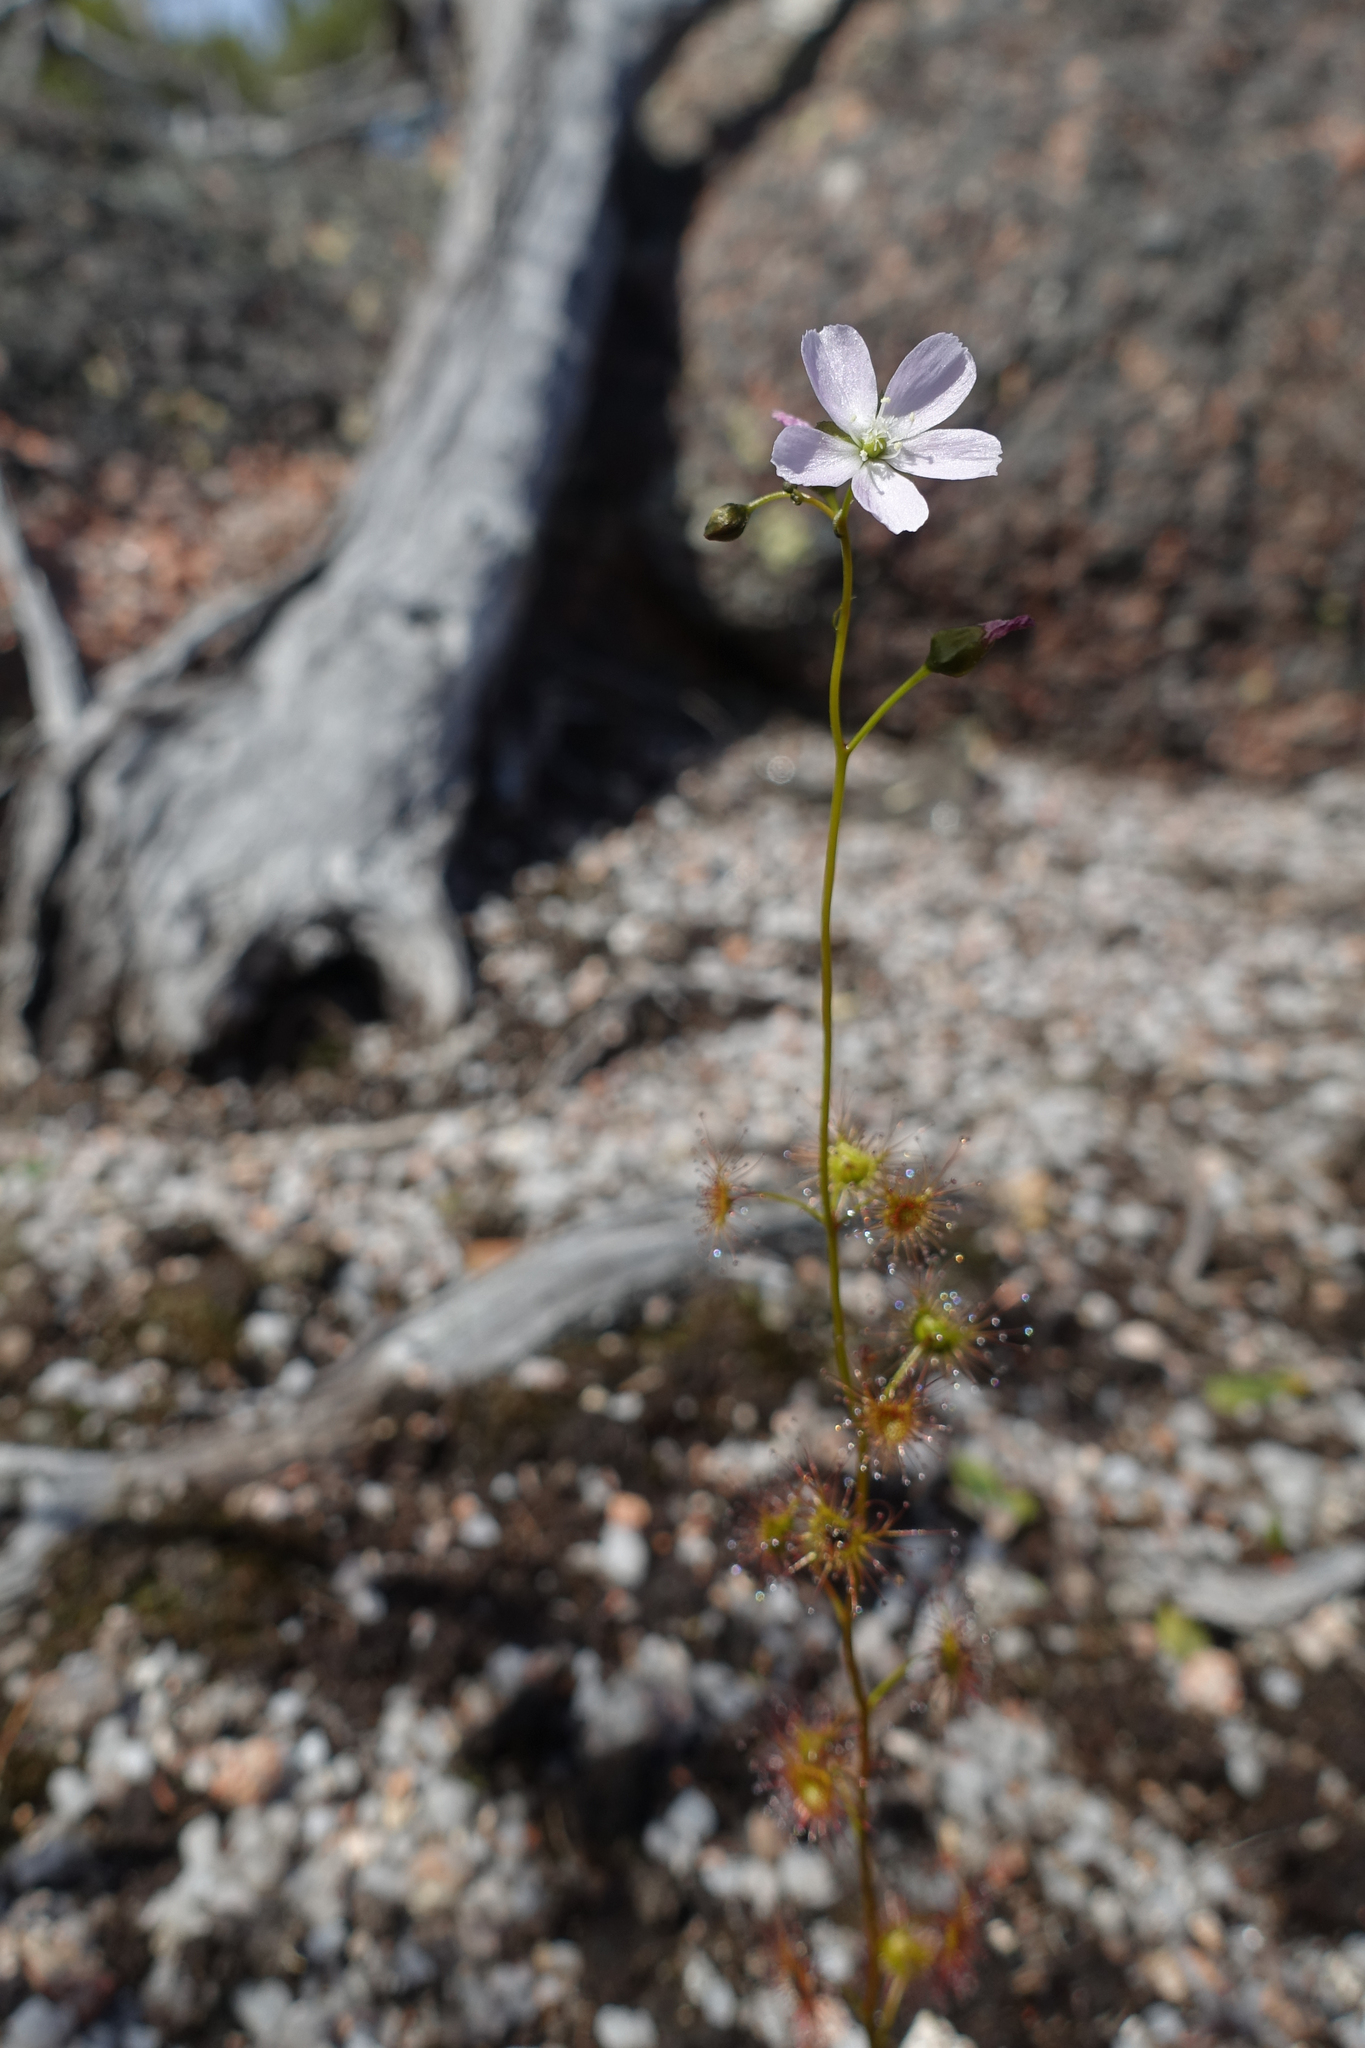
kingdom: Plantae
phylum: Tracheophyta
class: Magnoliopsida
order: Caryophyllales
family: Droseraceae
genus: Drosera
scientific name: Drosera peltata
